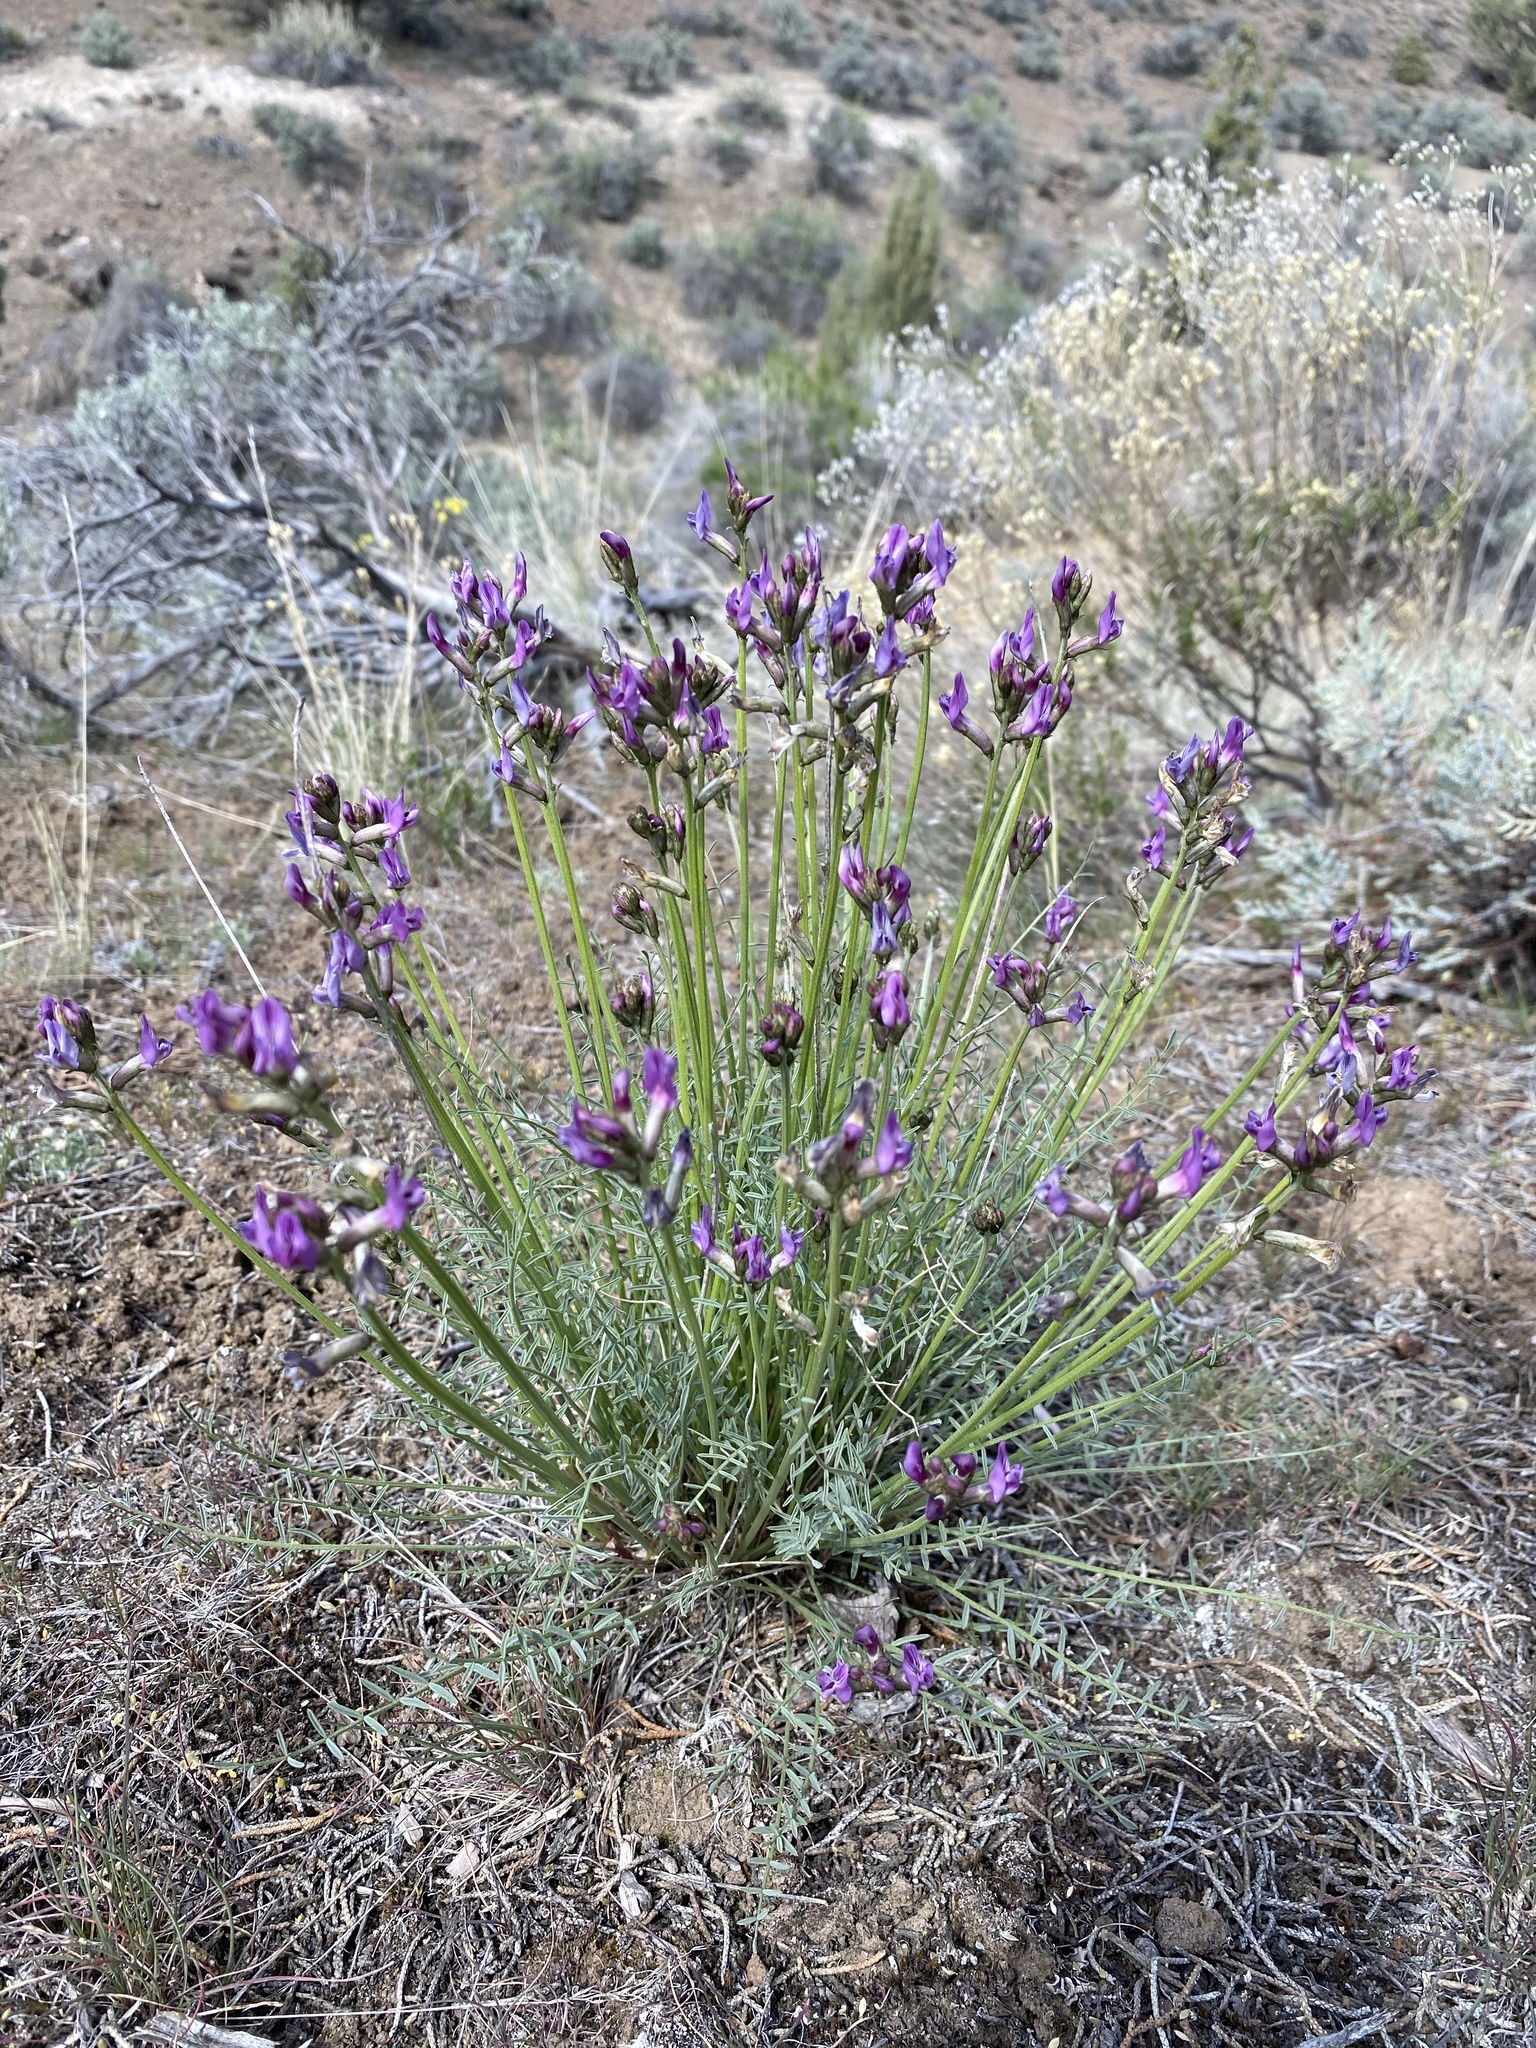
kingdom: Plantae
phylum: Tracheophyta
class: Magnoliopsida
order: Fabales
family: Fabaceae
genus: Astragalus
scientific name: Astragalus conjunctus
